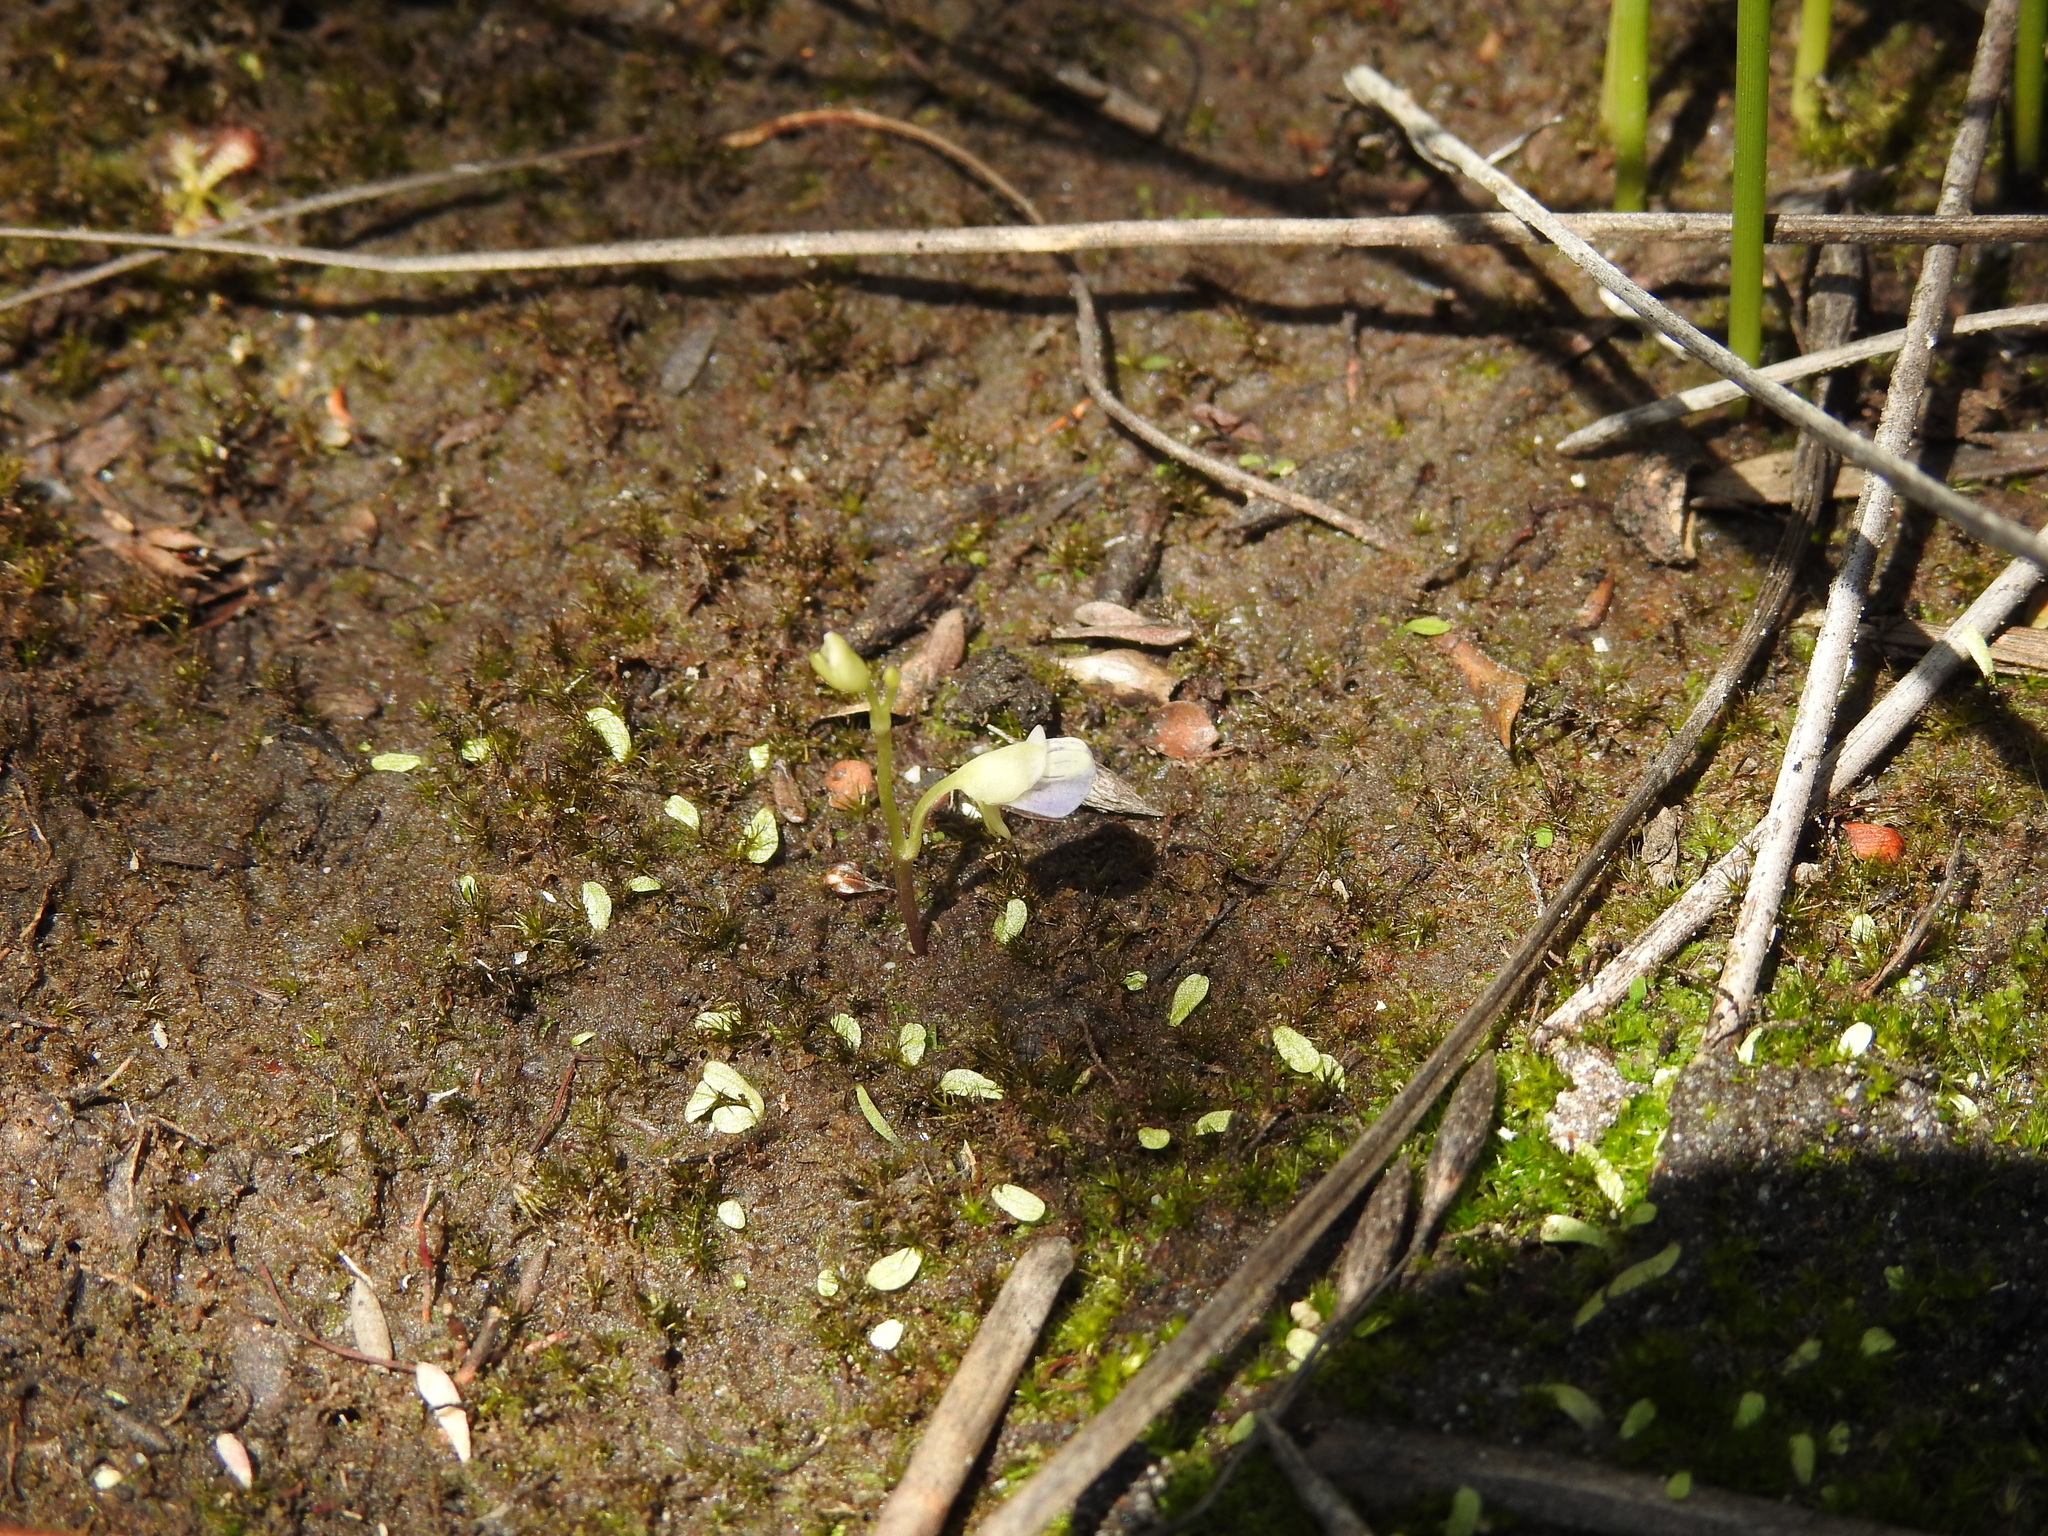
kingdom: Plantae
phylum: Tracheophyta
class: Magnoliopsida
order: Lamiales
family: Lentibulariaceae
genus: Utricularia
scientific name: Utricularia uliginosa
